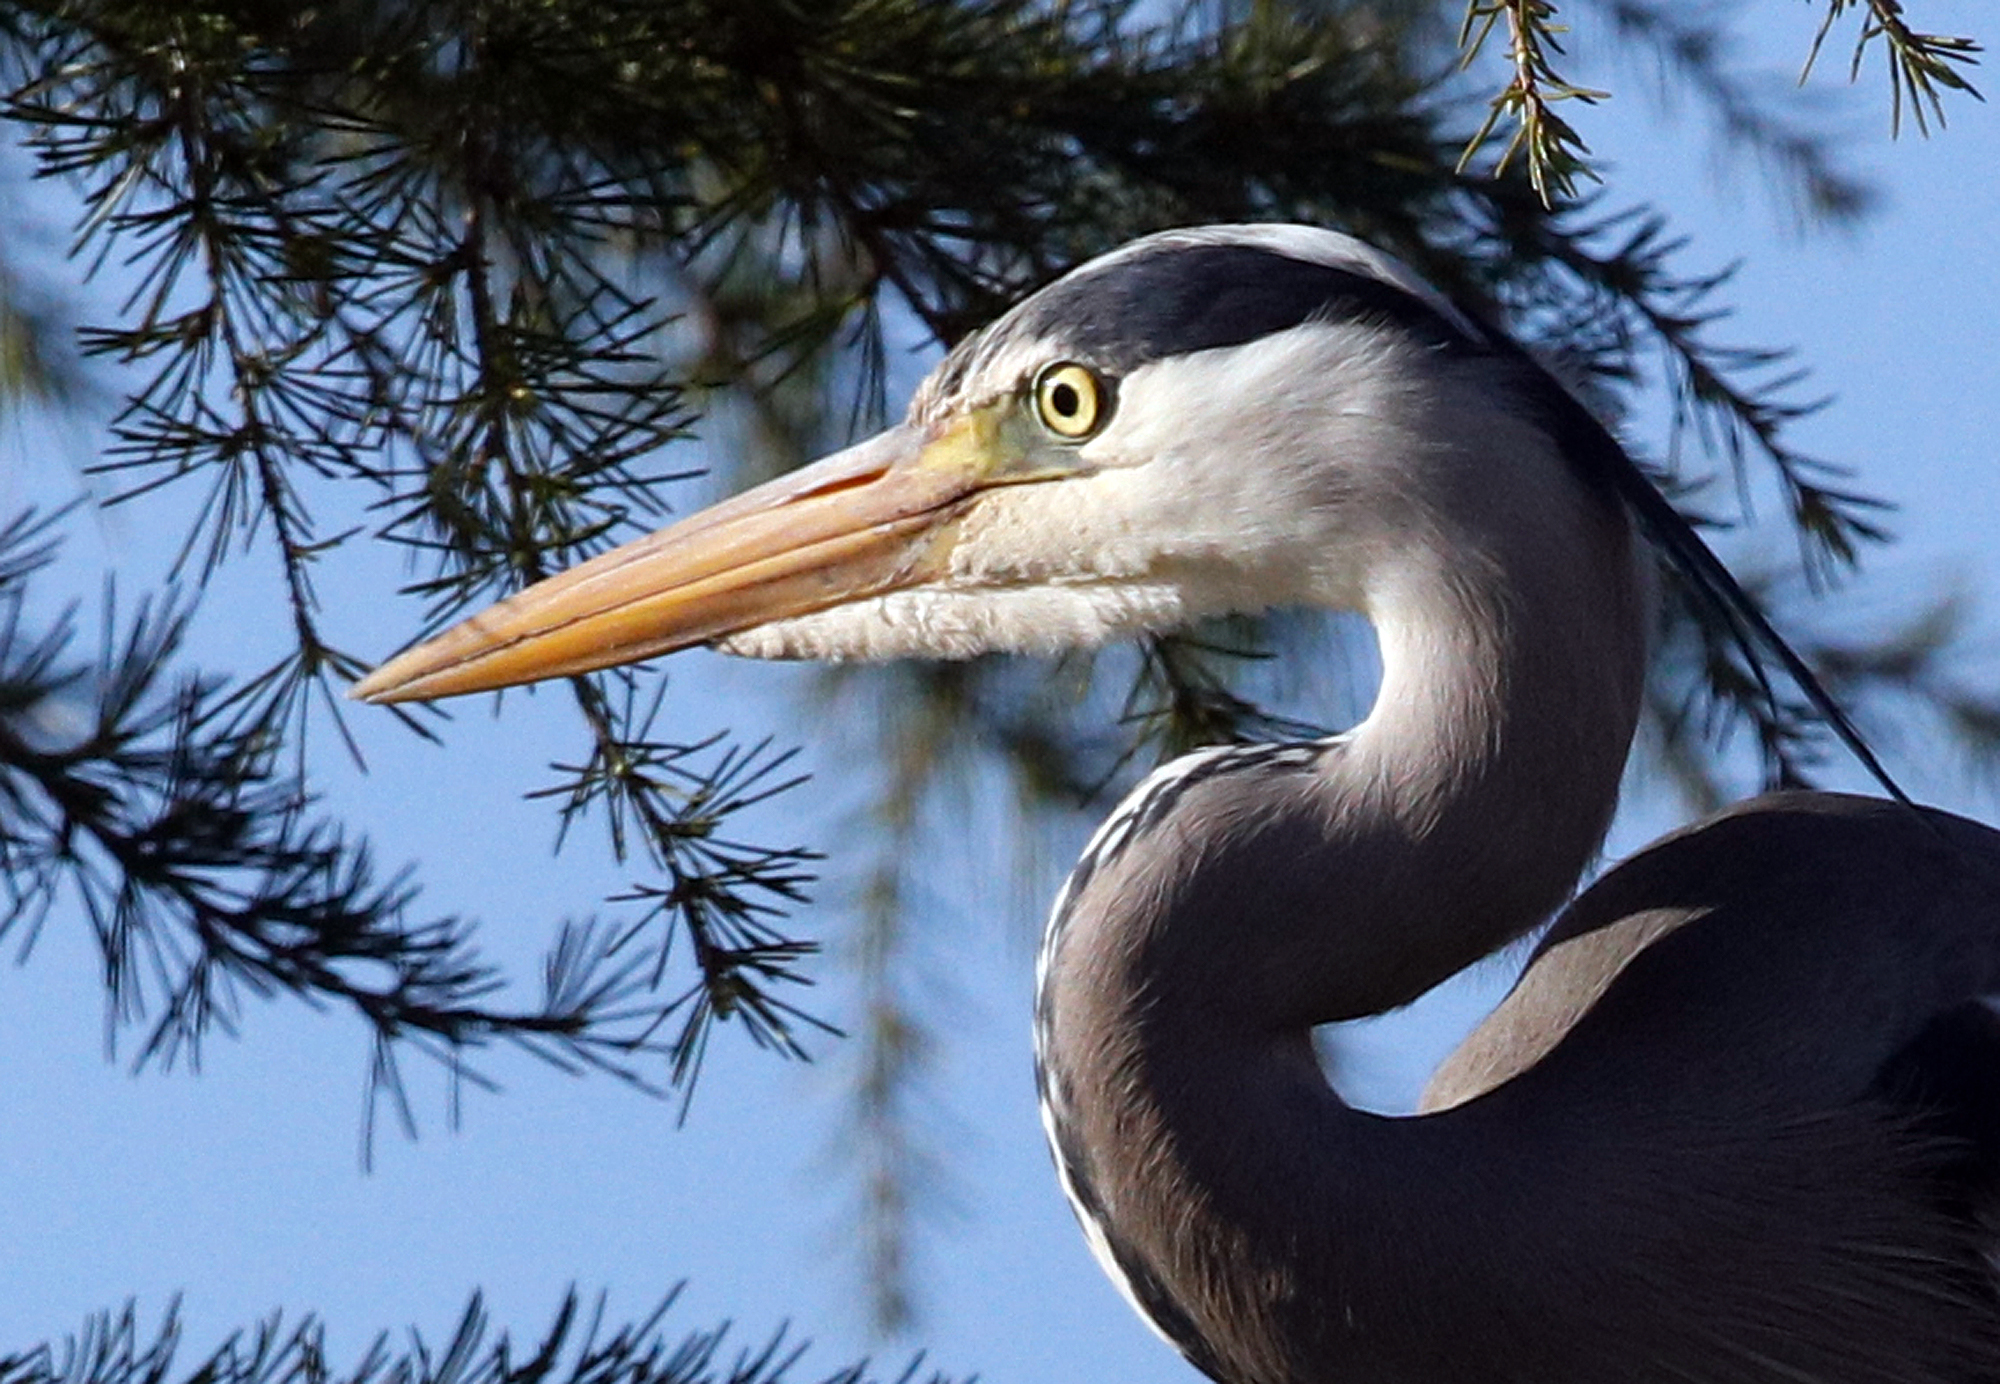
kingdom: Animalia
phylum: Chordata
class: Aves
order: Pelecaniformes
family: Ardeidae
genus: Ardea
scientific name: Ardea cinerea
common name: Grey heron
